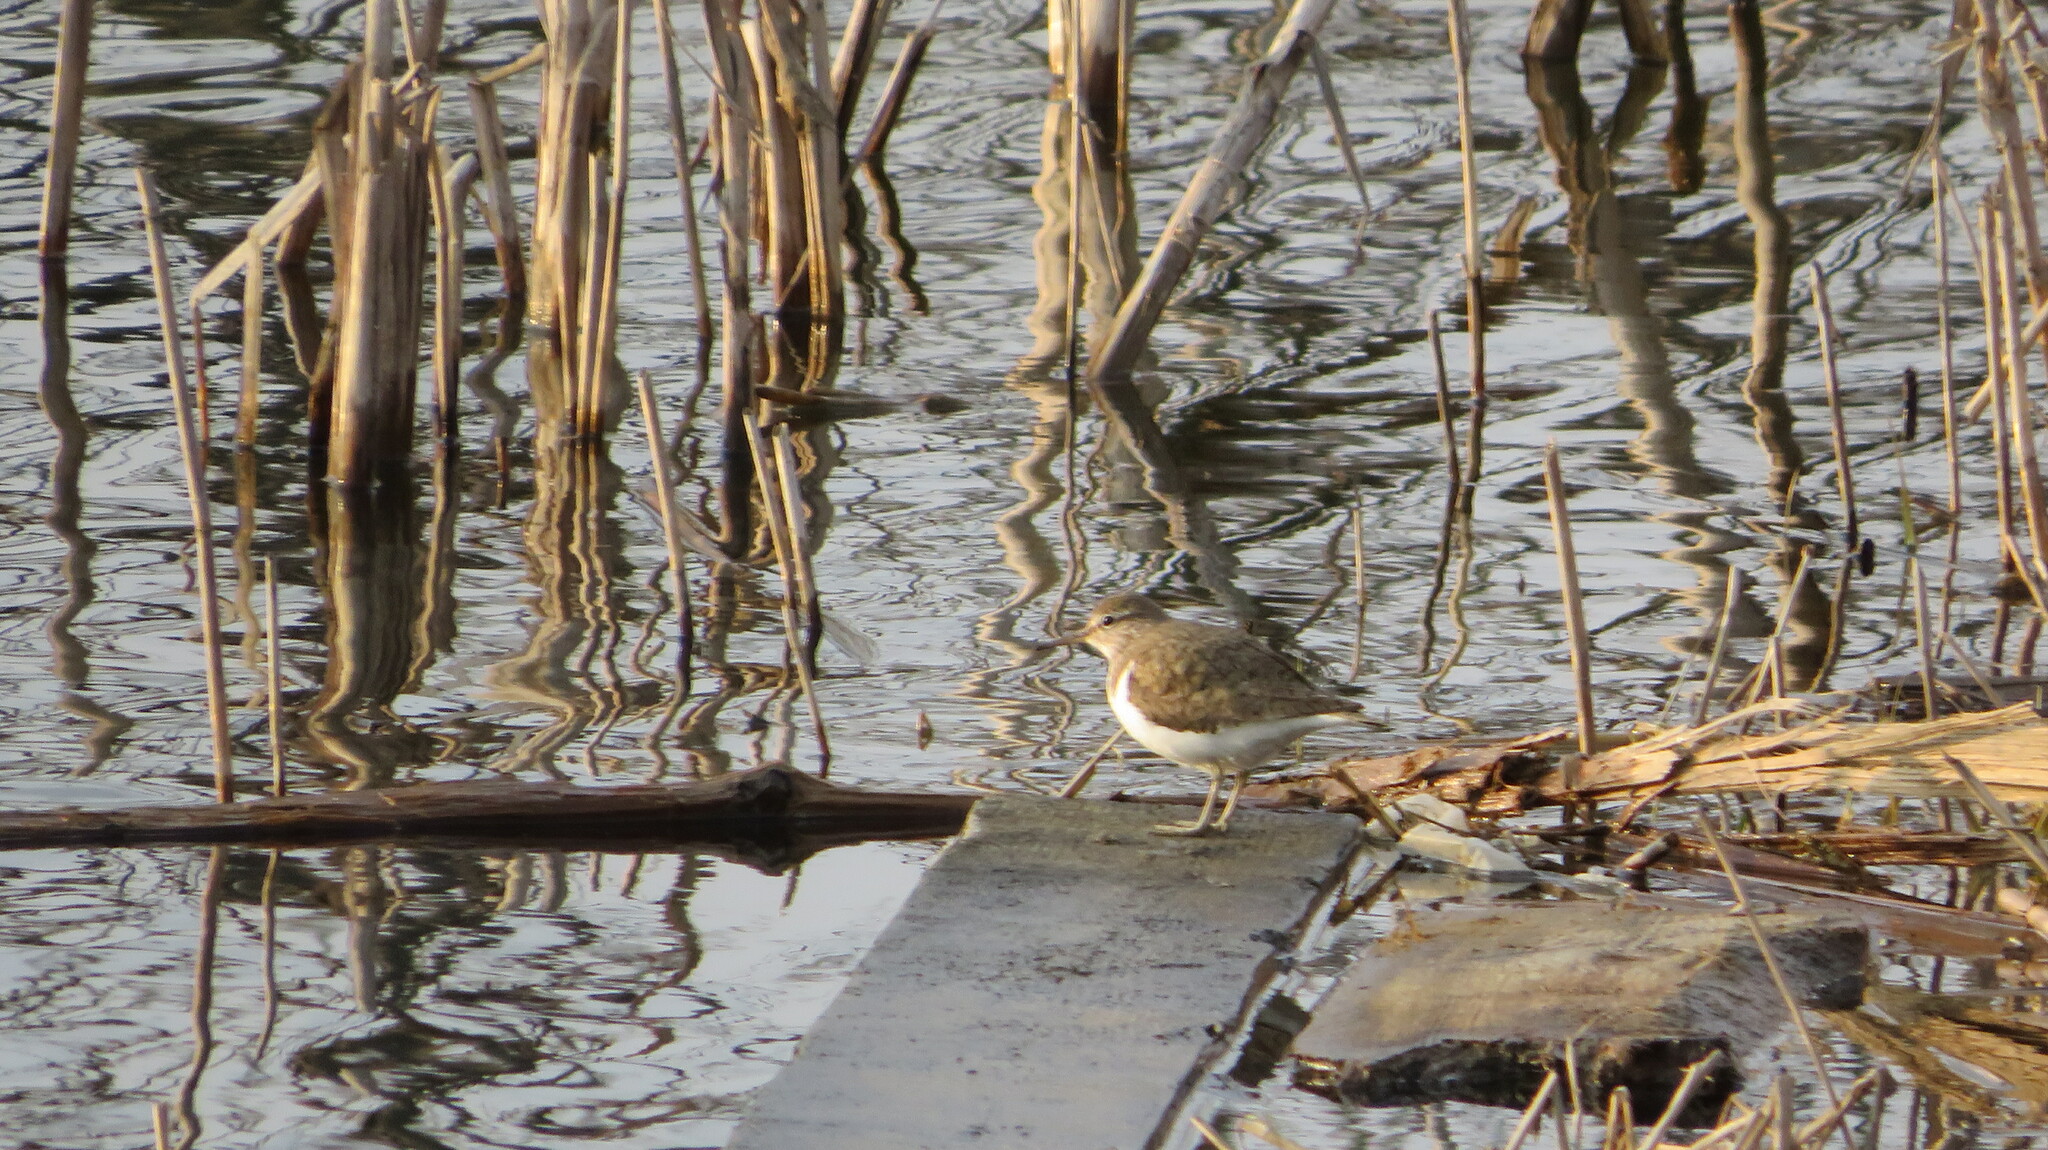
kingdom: Animalia
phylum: Chordata
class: Aves
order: Charadriiformes
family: Scolopacidae
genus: Actitis
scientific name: Actitis hypoleucos
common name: Common sandpiper
